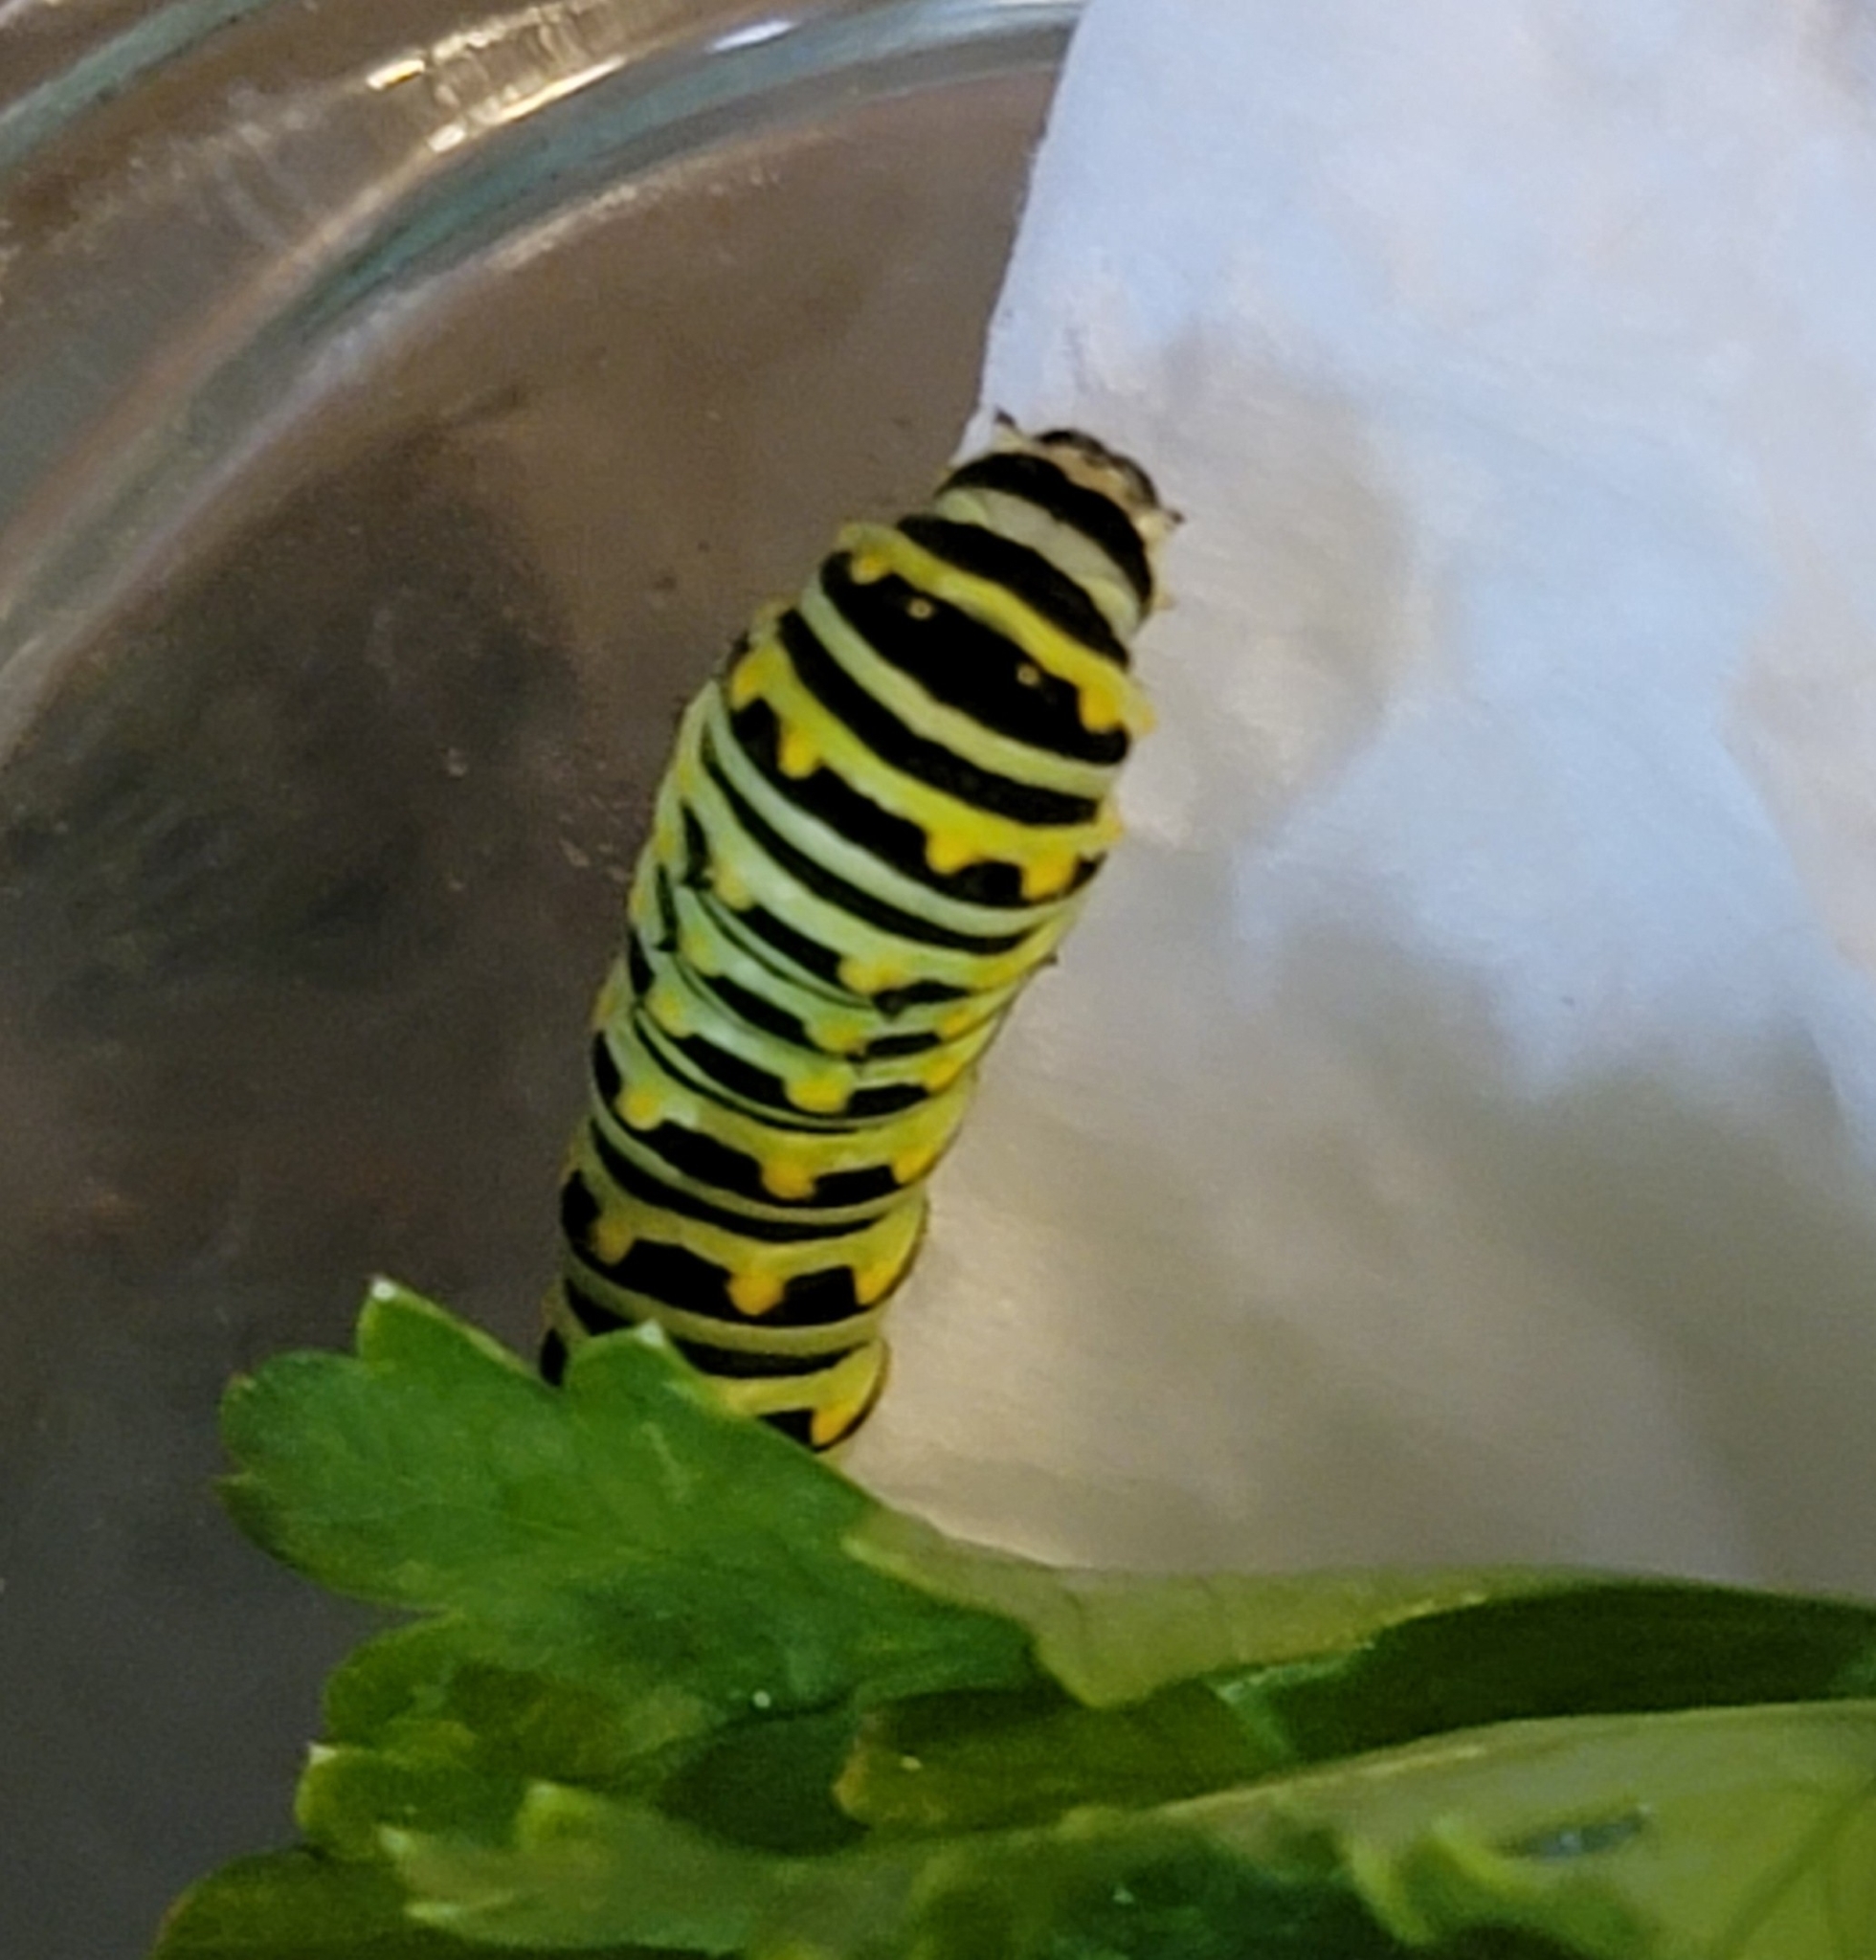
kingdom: Animalia
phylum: Arthropoda
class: Insecta
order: Lepidoptera
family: Papilionidae
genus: Papilio
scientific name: Papilio polyxenes
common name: Black swallowtail
